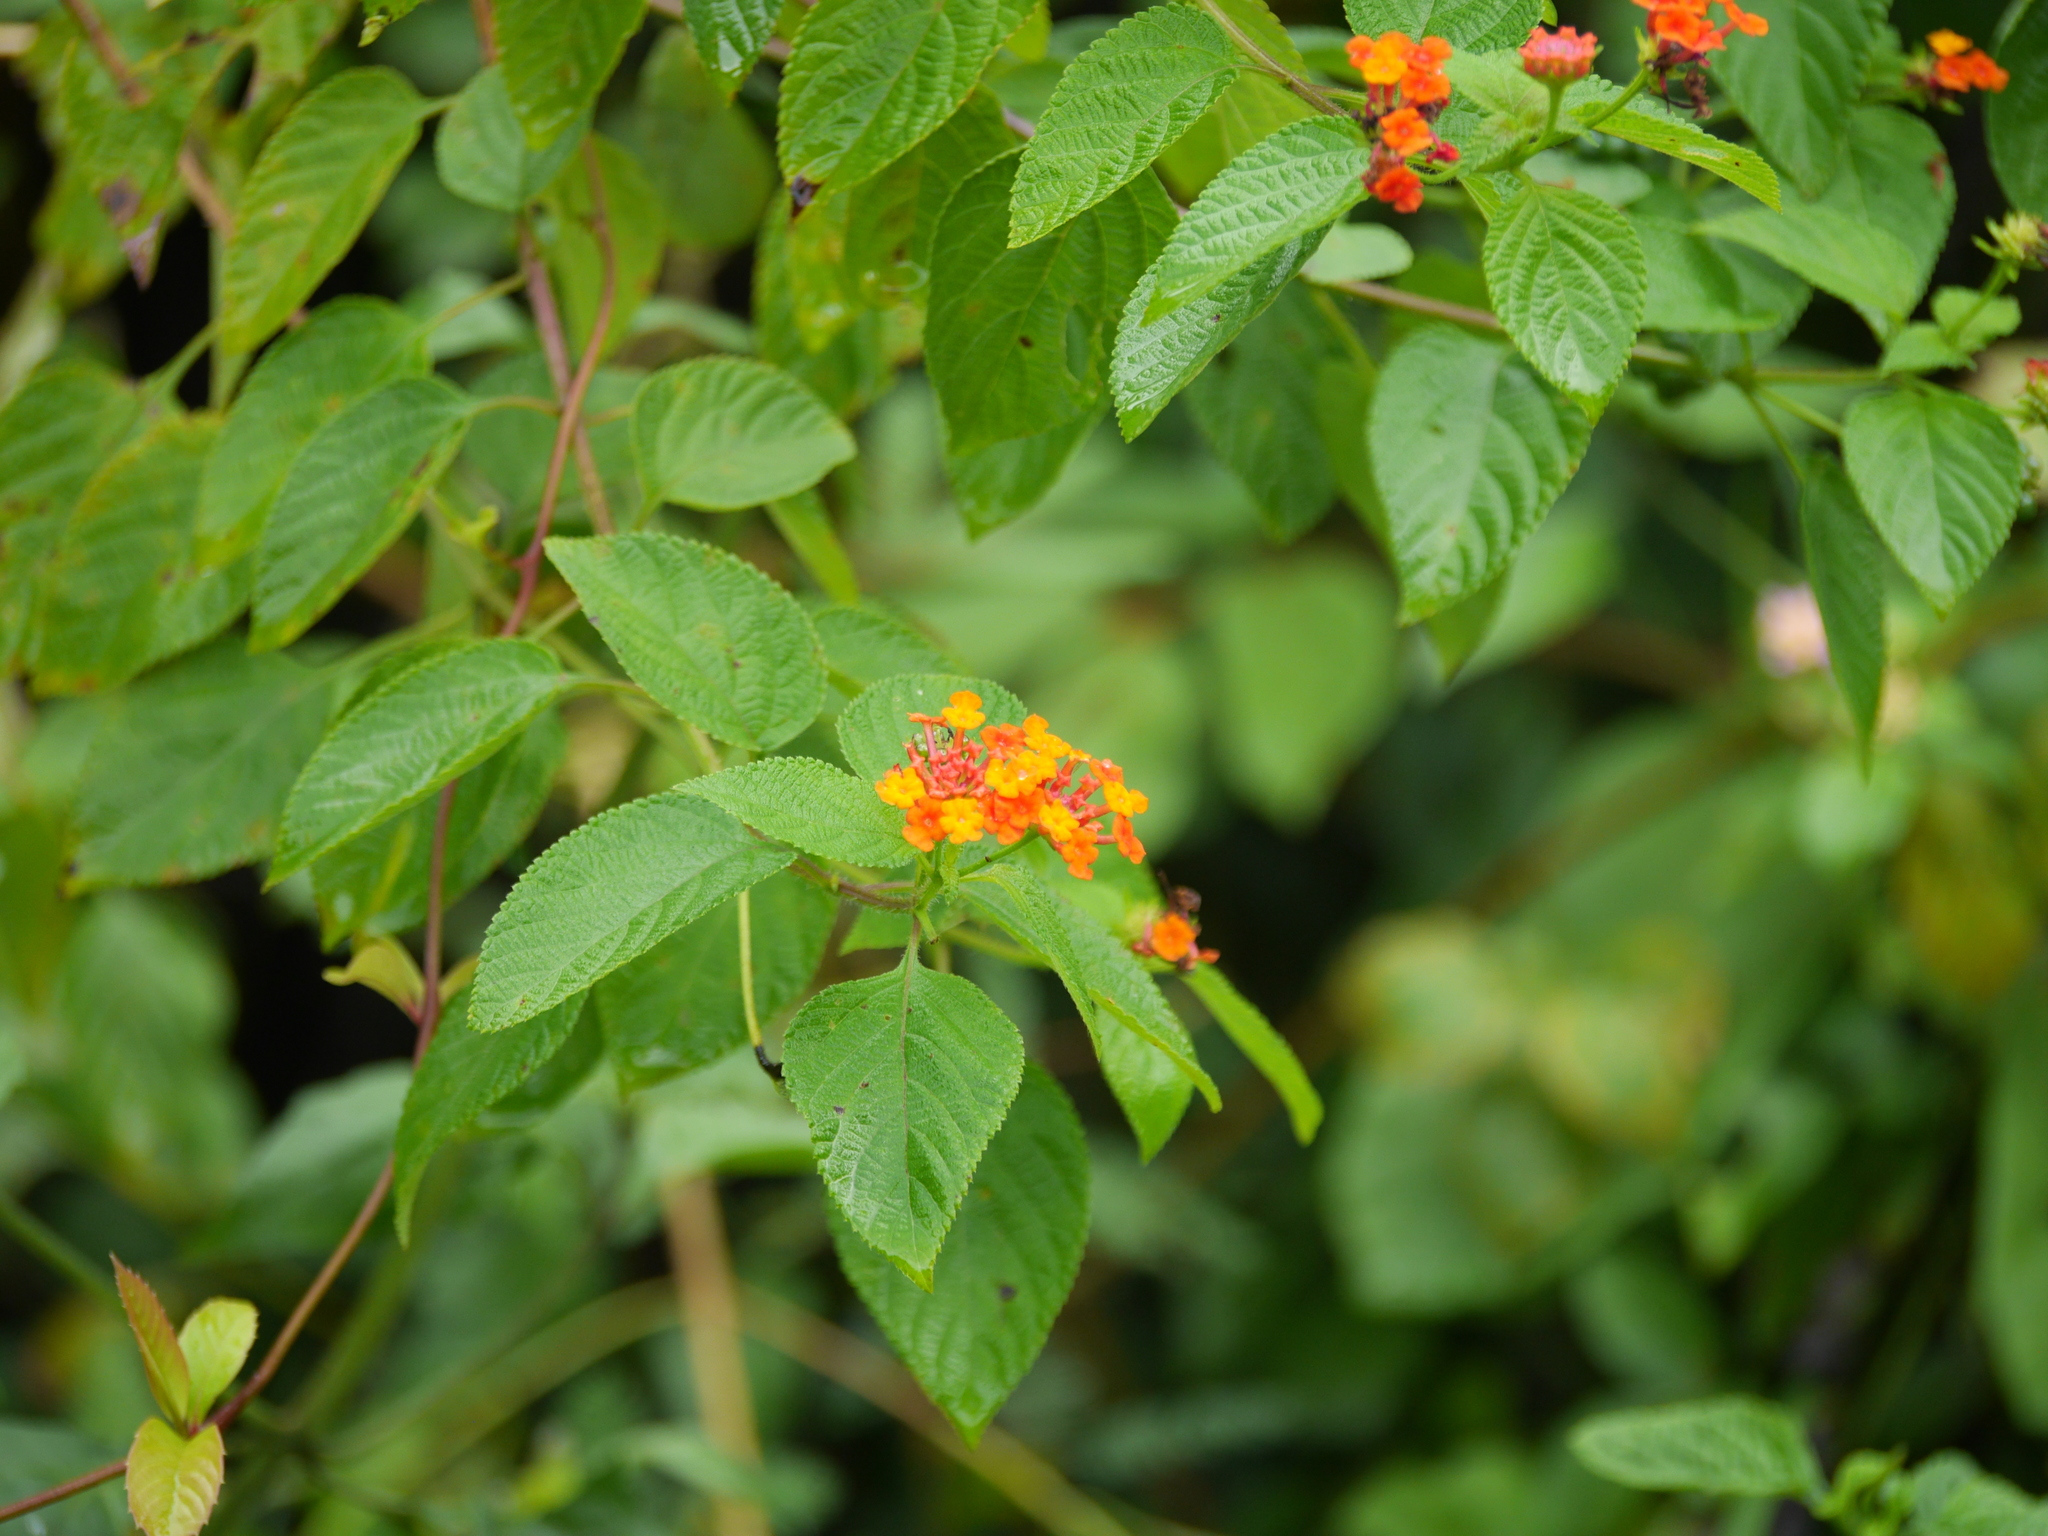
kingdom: Plantae
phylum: Tracheophyta
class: Magnoliopsida
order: Lamiales
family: Verbenaceae
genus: Lantana
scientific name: Lantana camara
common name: Lantana
